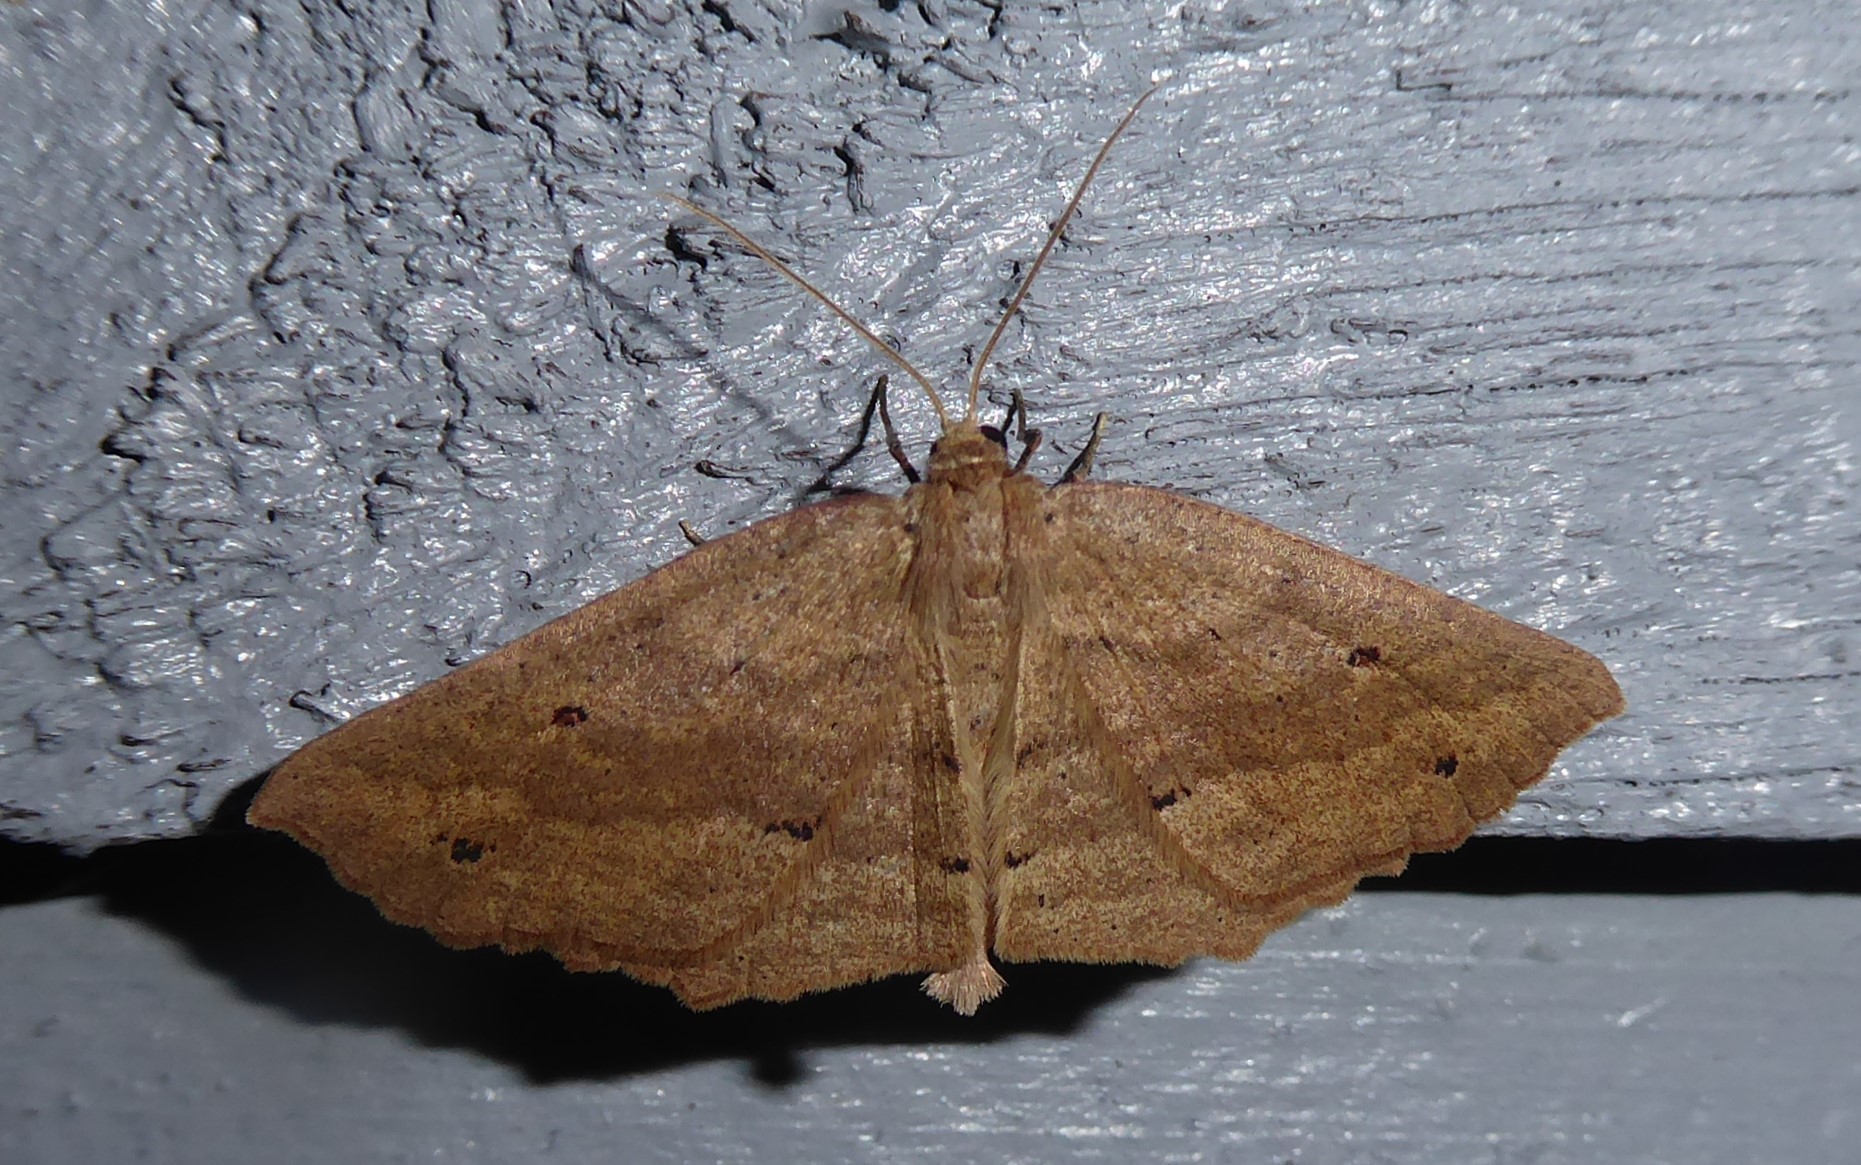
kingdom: Animalia
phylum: Arthropoda
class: Insecta
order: Lepidoptera
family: Geometridae
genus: Xyridacma
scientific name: Xyridacma veronicae
